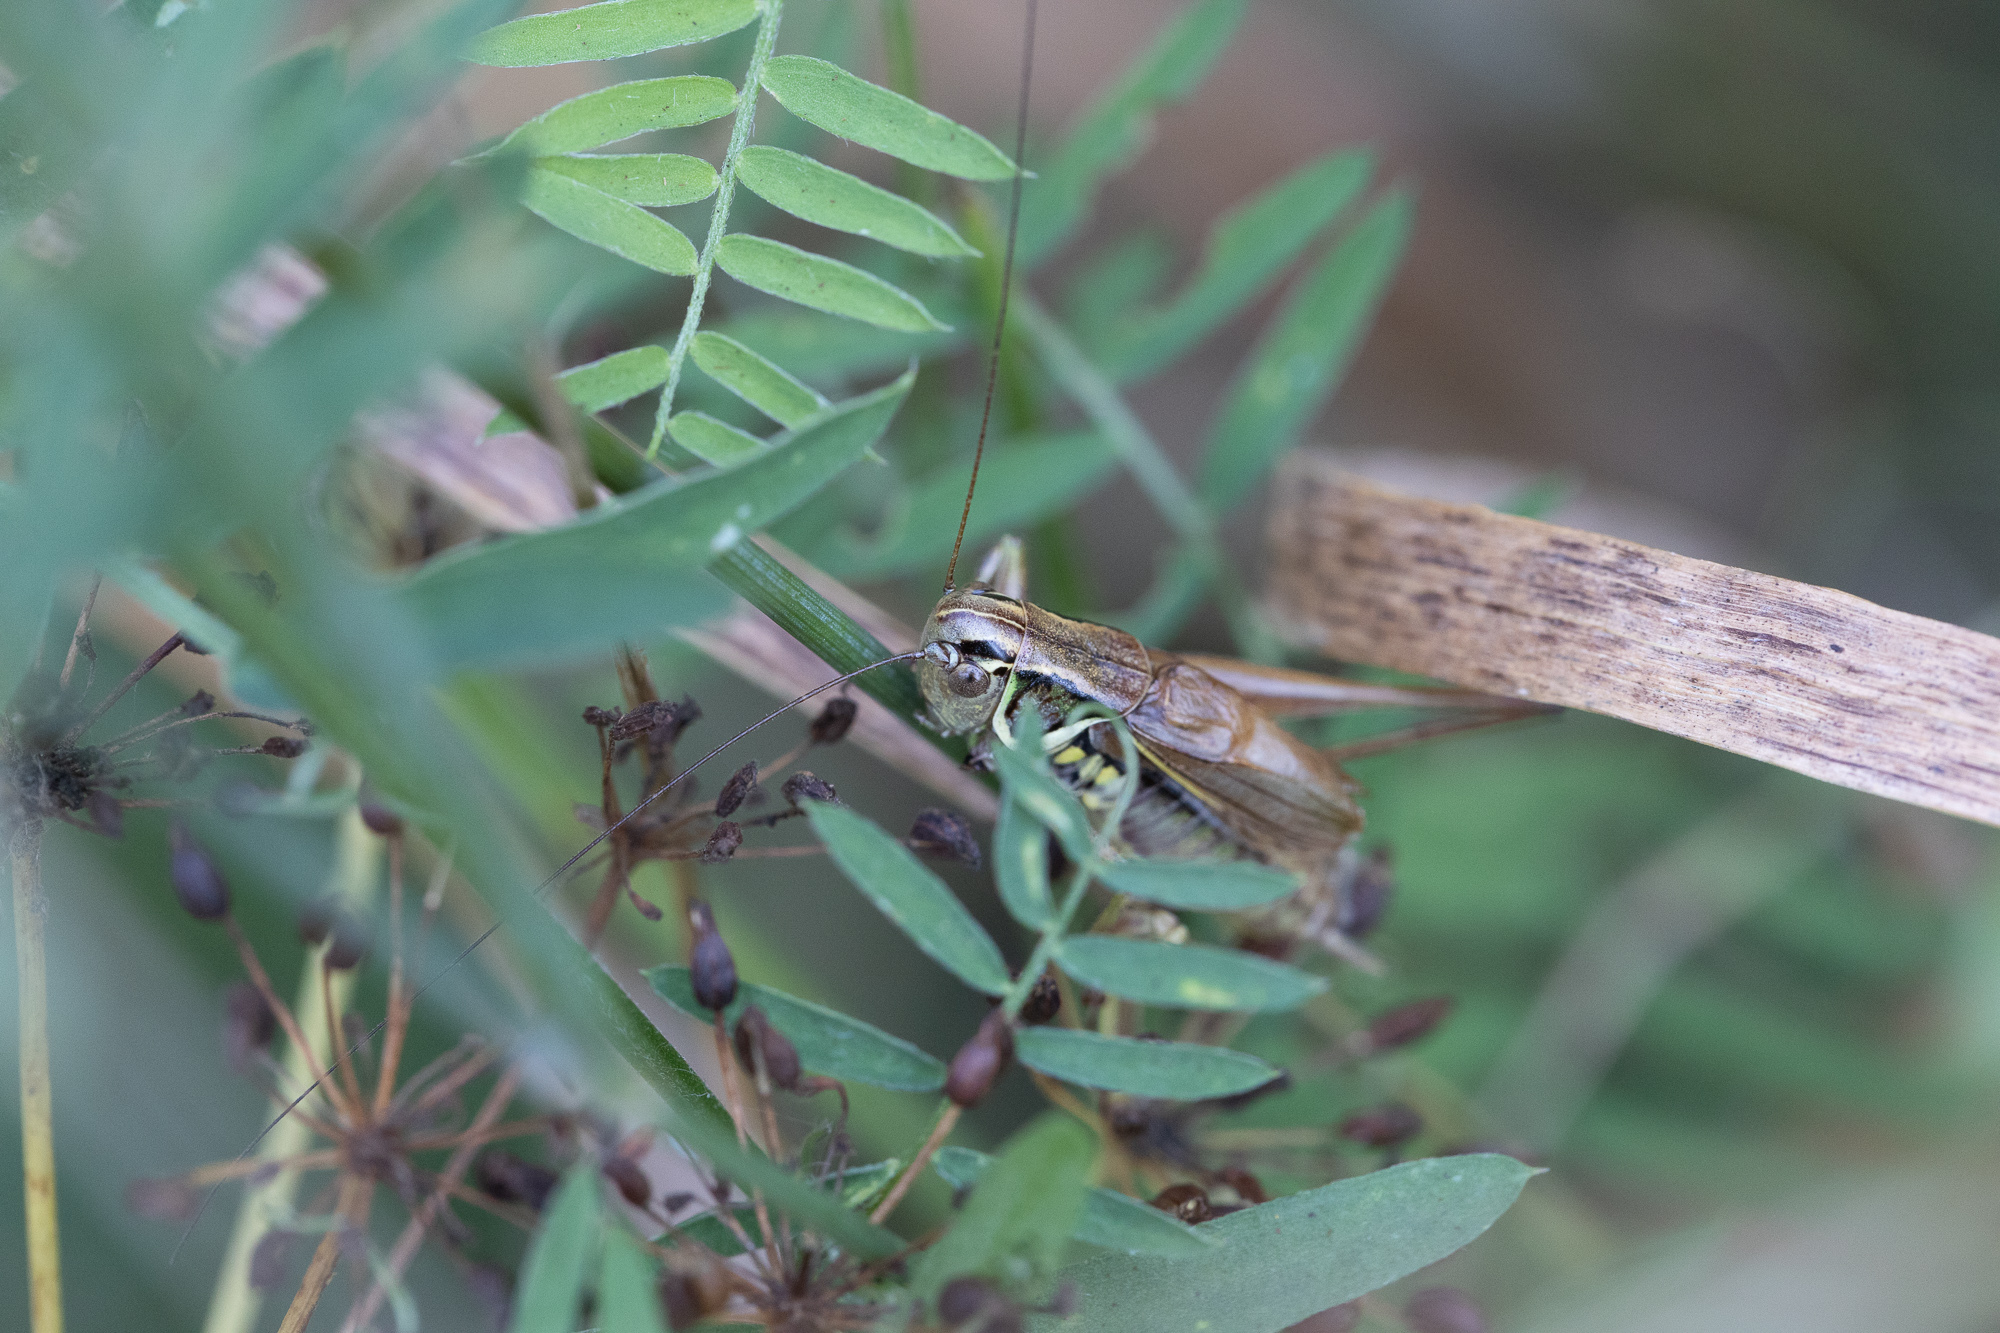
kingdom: Animalia
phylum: Arthropoda
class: Insecta
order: Orthoptera
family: Tettigoniidae
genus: Roeseliana
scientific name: Roeseliana roeselii
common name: Roesel's bush cricket
